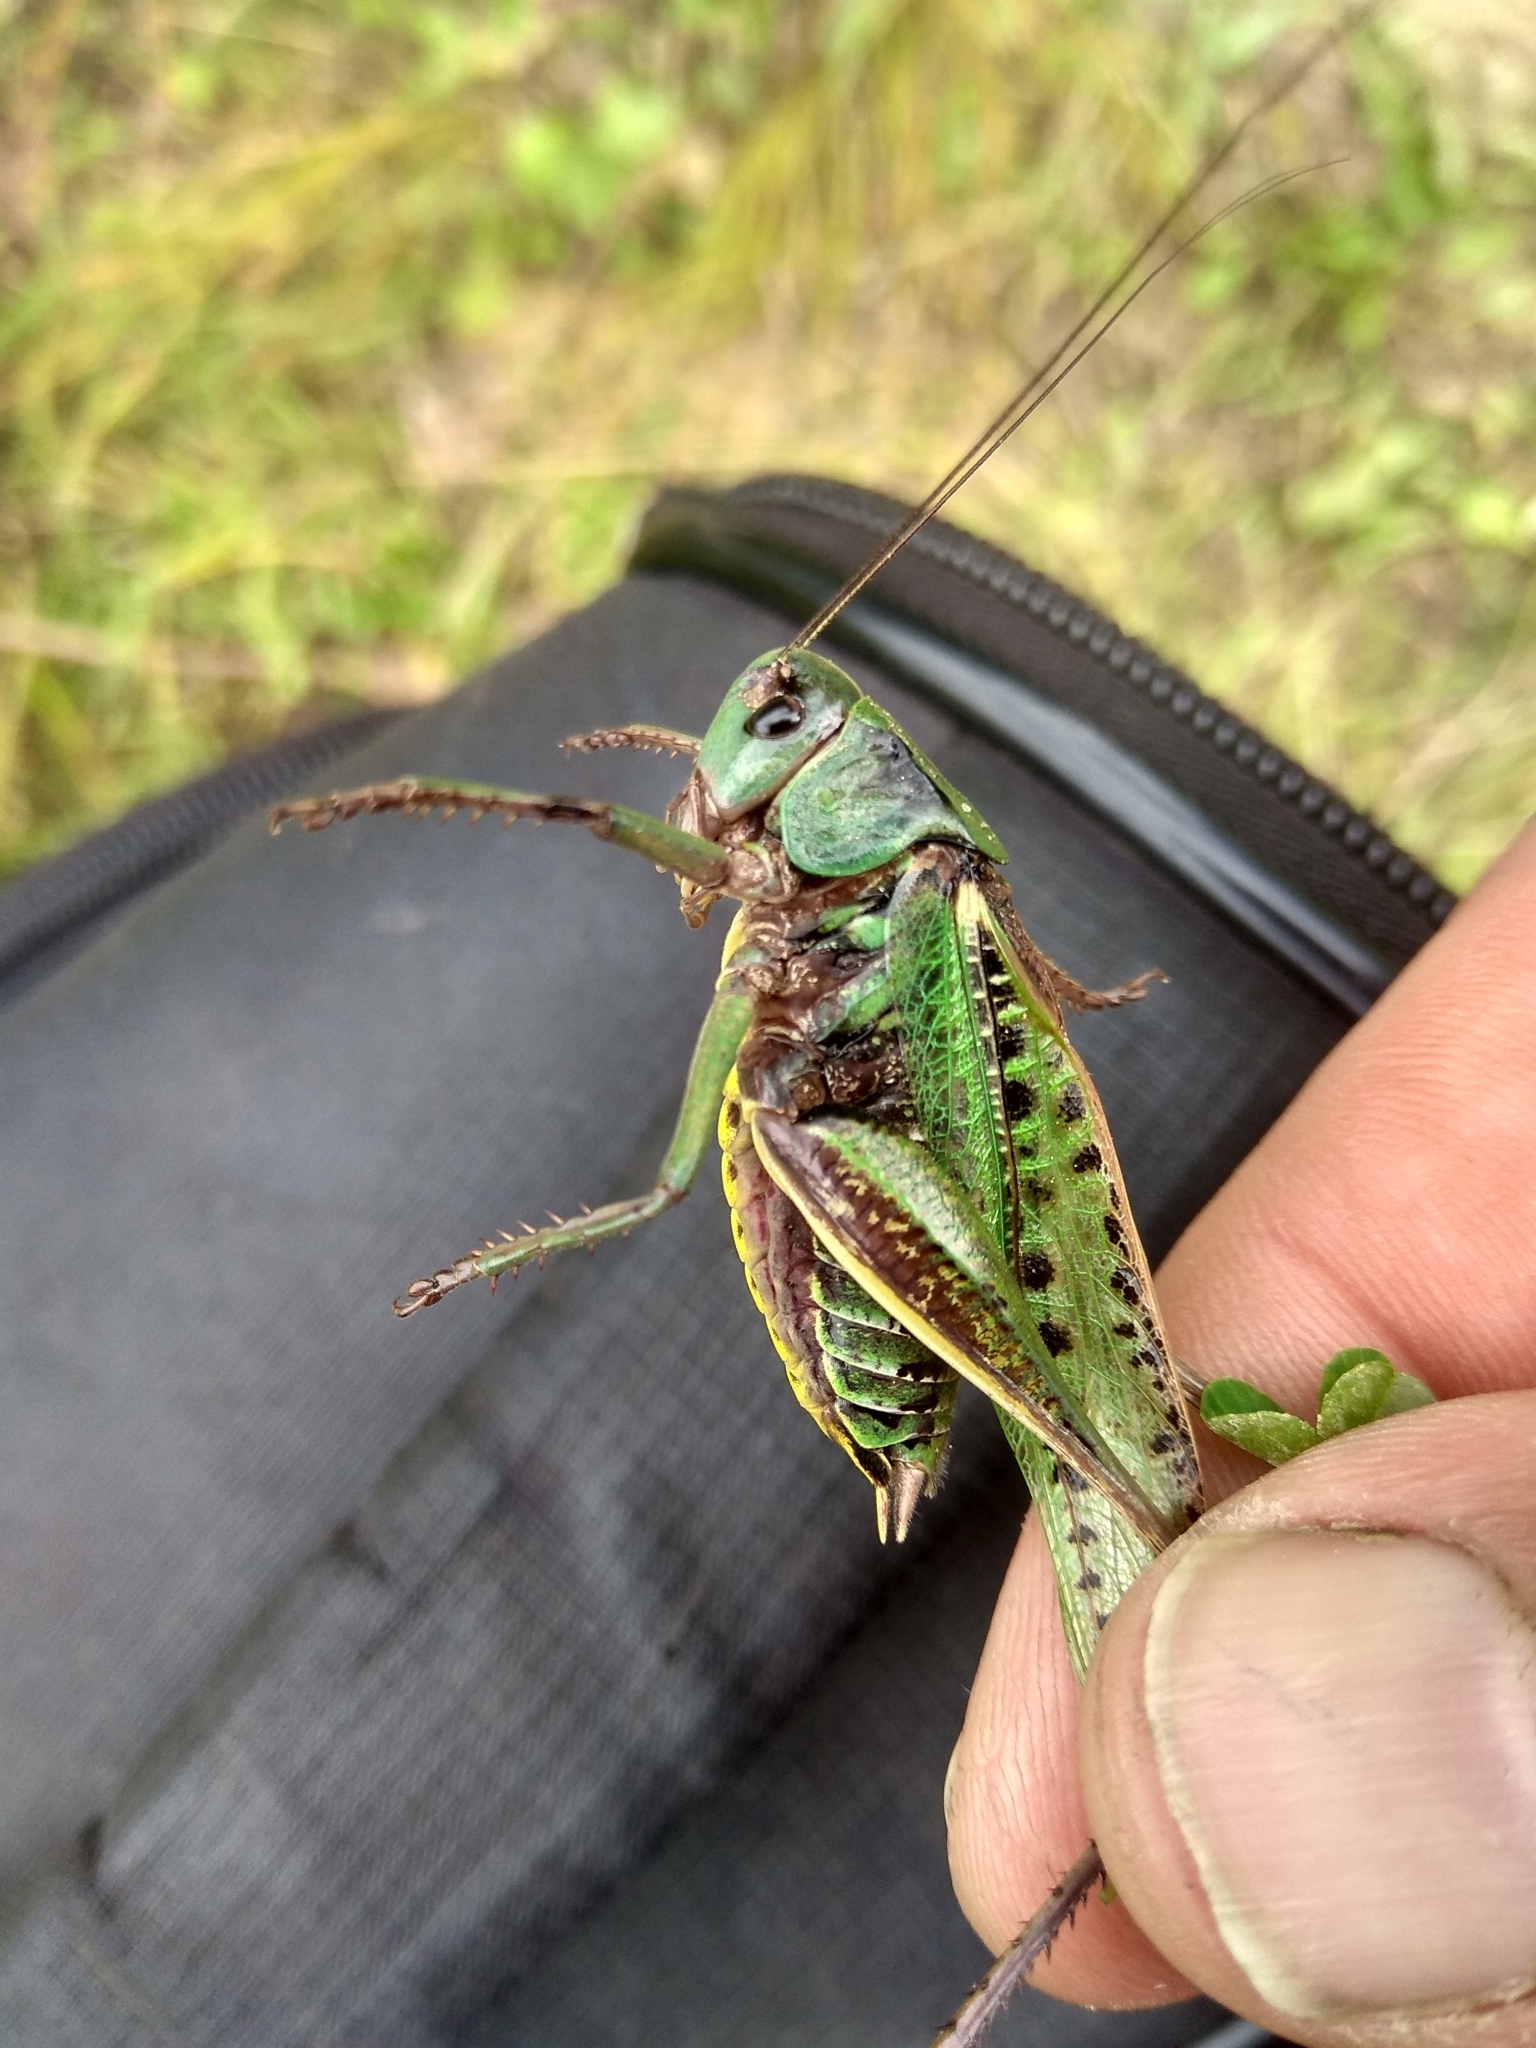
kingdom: Animalia
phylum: Arthropoda
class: Insecta
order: Orthoptera
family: Tettigoniidae
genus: Decticus
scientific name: Decticus verrucivorus
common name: Wart-biter
